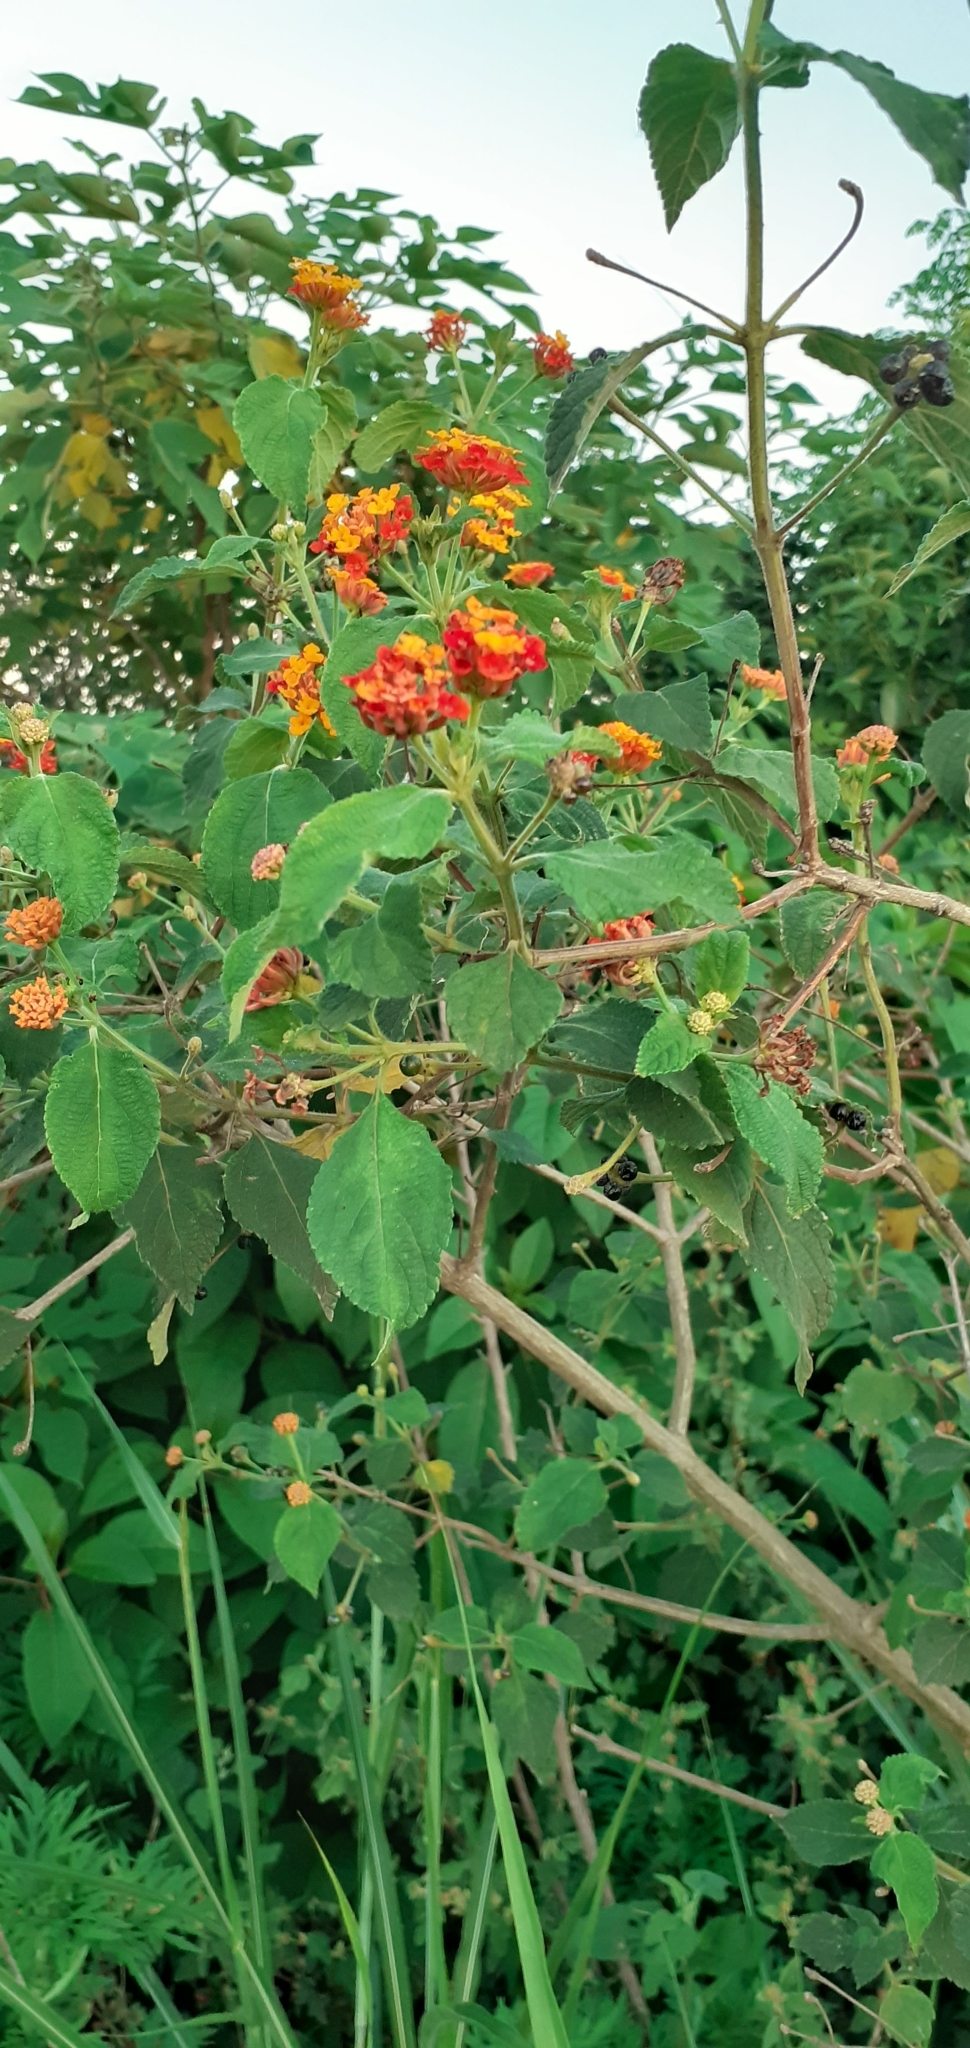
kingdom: Plantae
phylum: Tracheophyta
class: Magnoliopsida
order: Lamiales
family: Verbenaceae
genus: Lantana
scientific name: Lantana horrida
